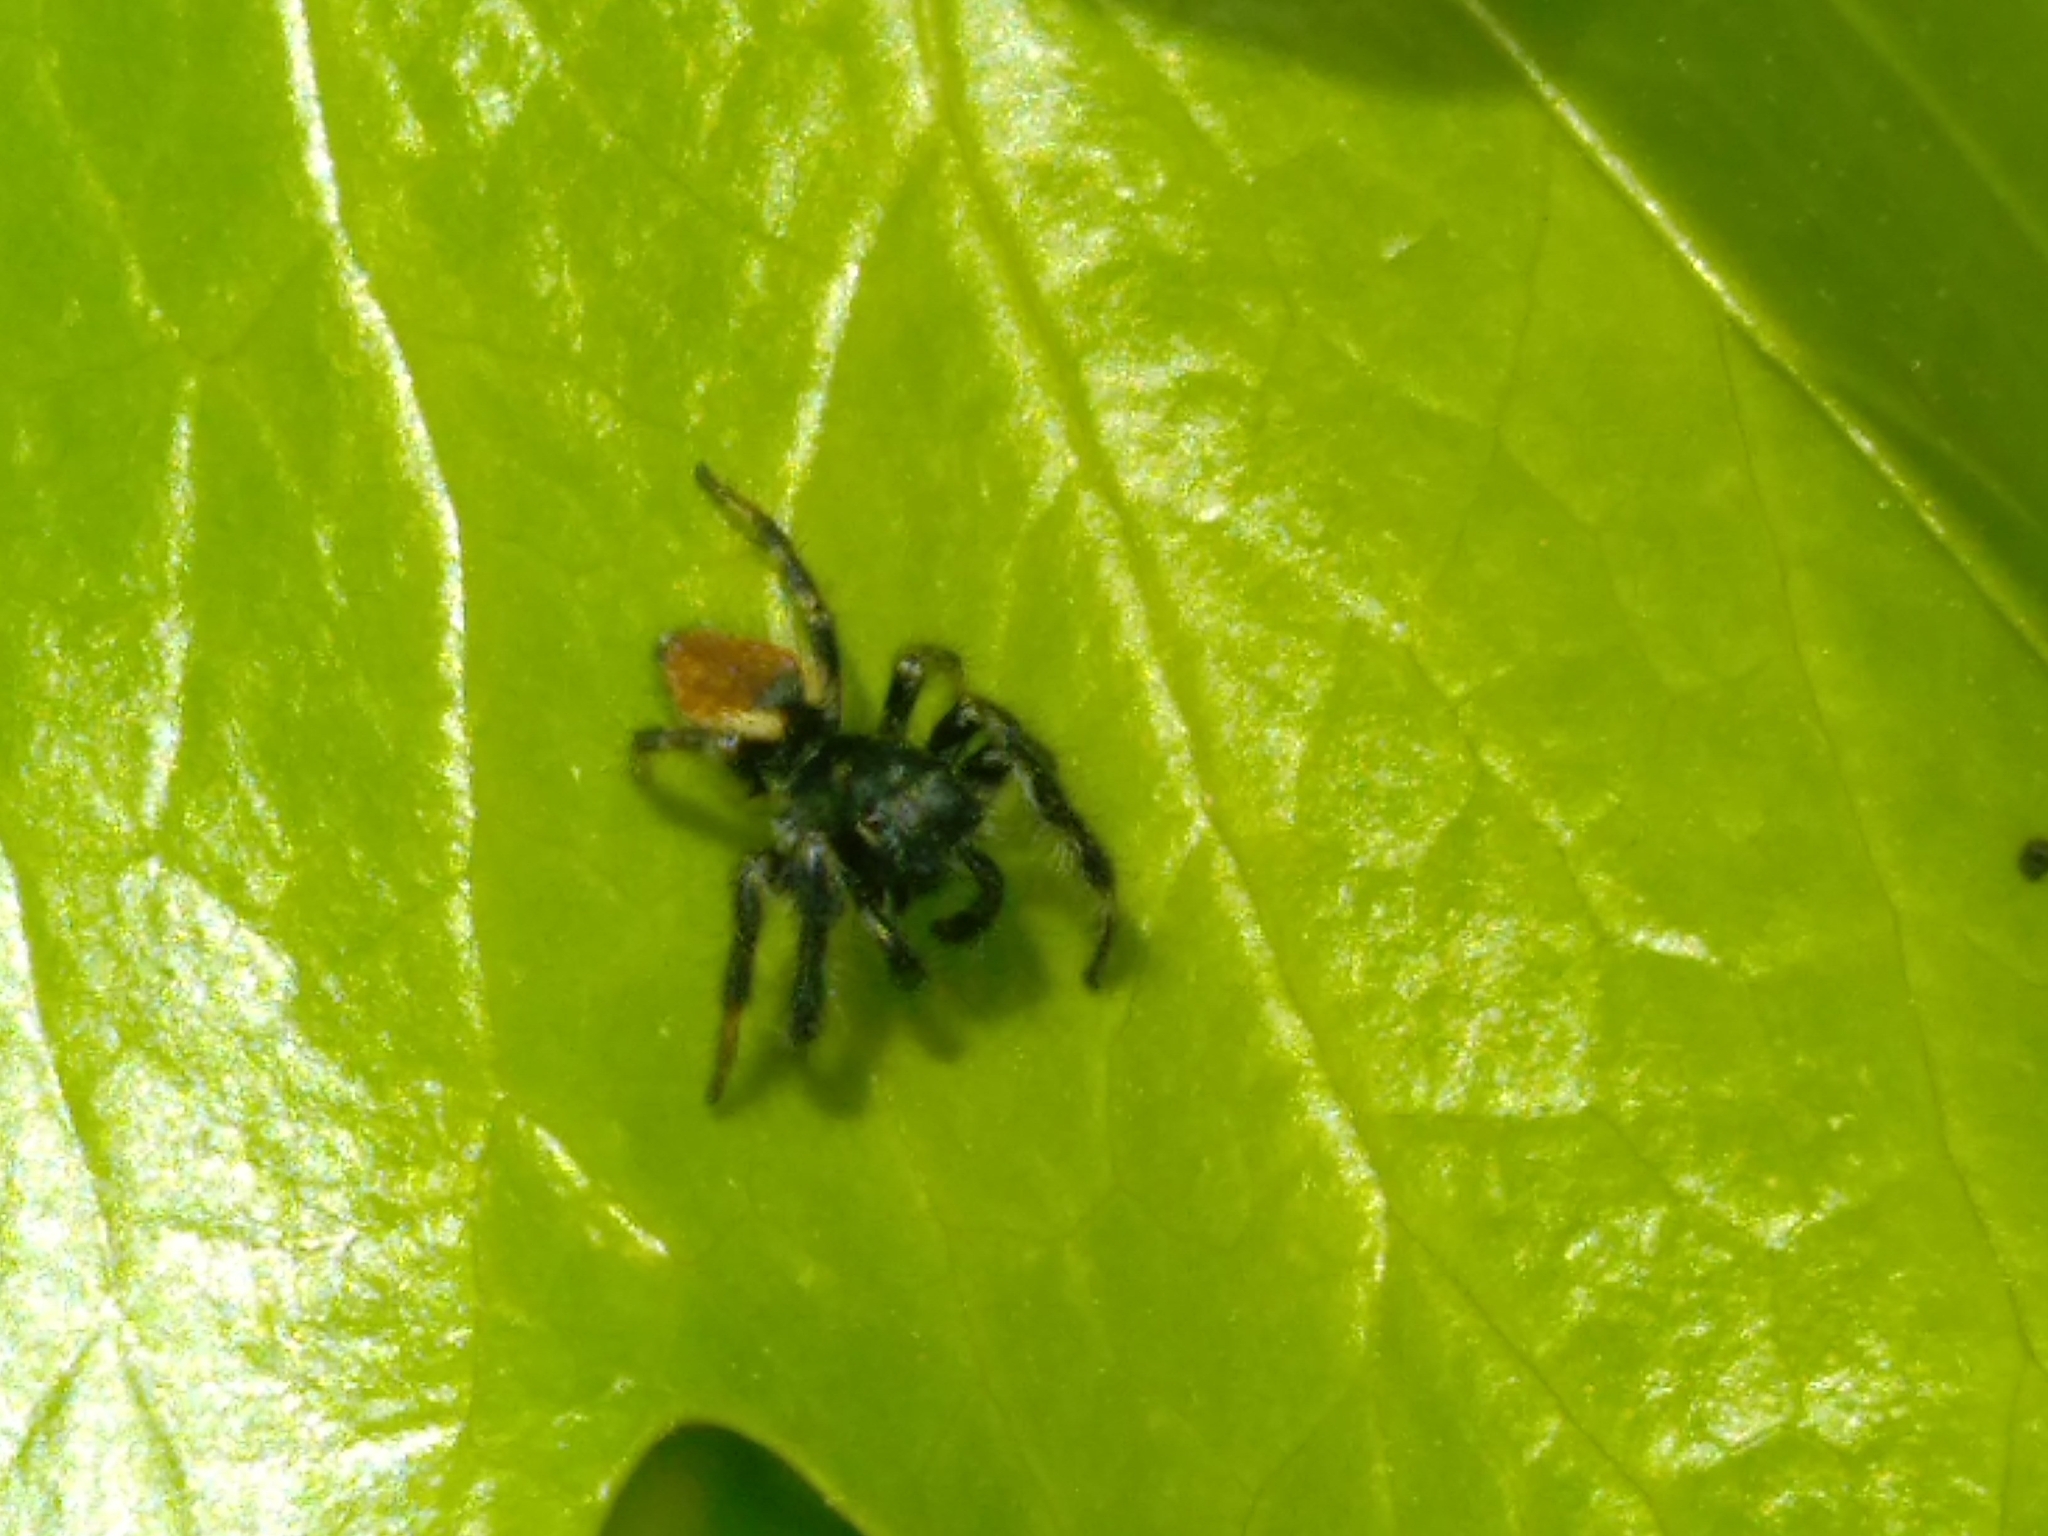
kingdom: Animalia
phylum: Arthropoda
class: Arachnida
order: Araneae
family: Salticidae
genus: Carrhotus
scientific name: Carrhotus xanthogramma
